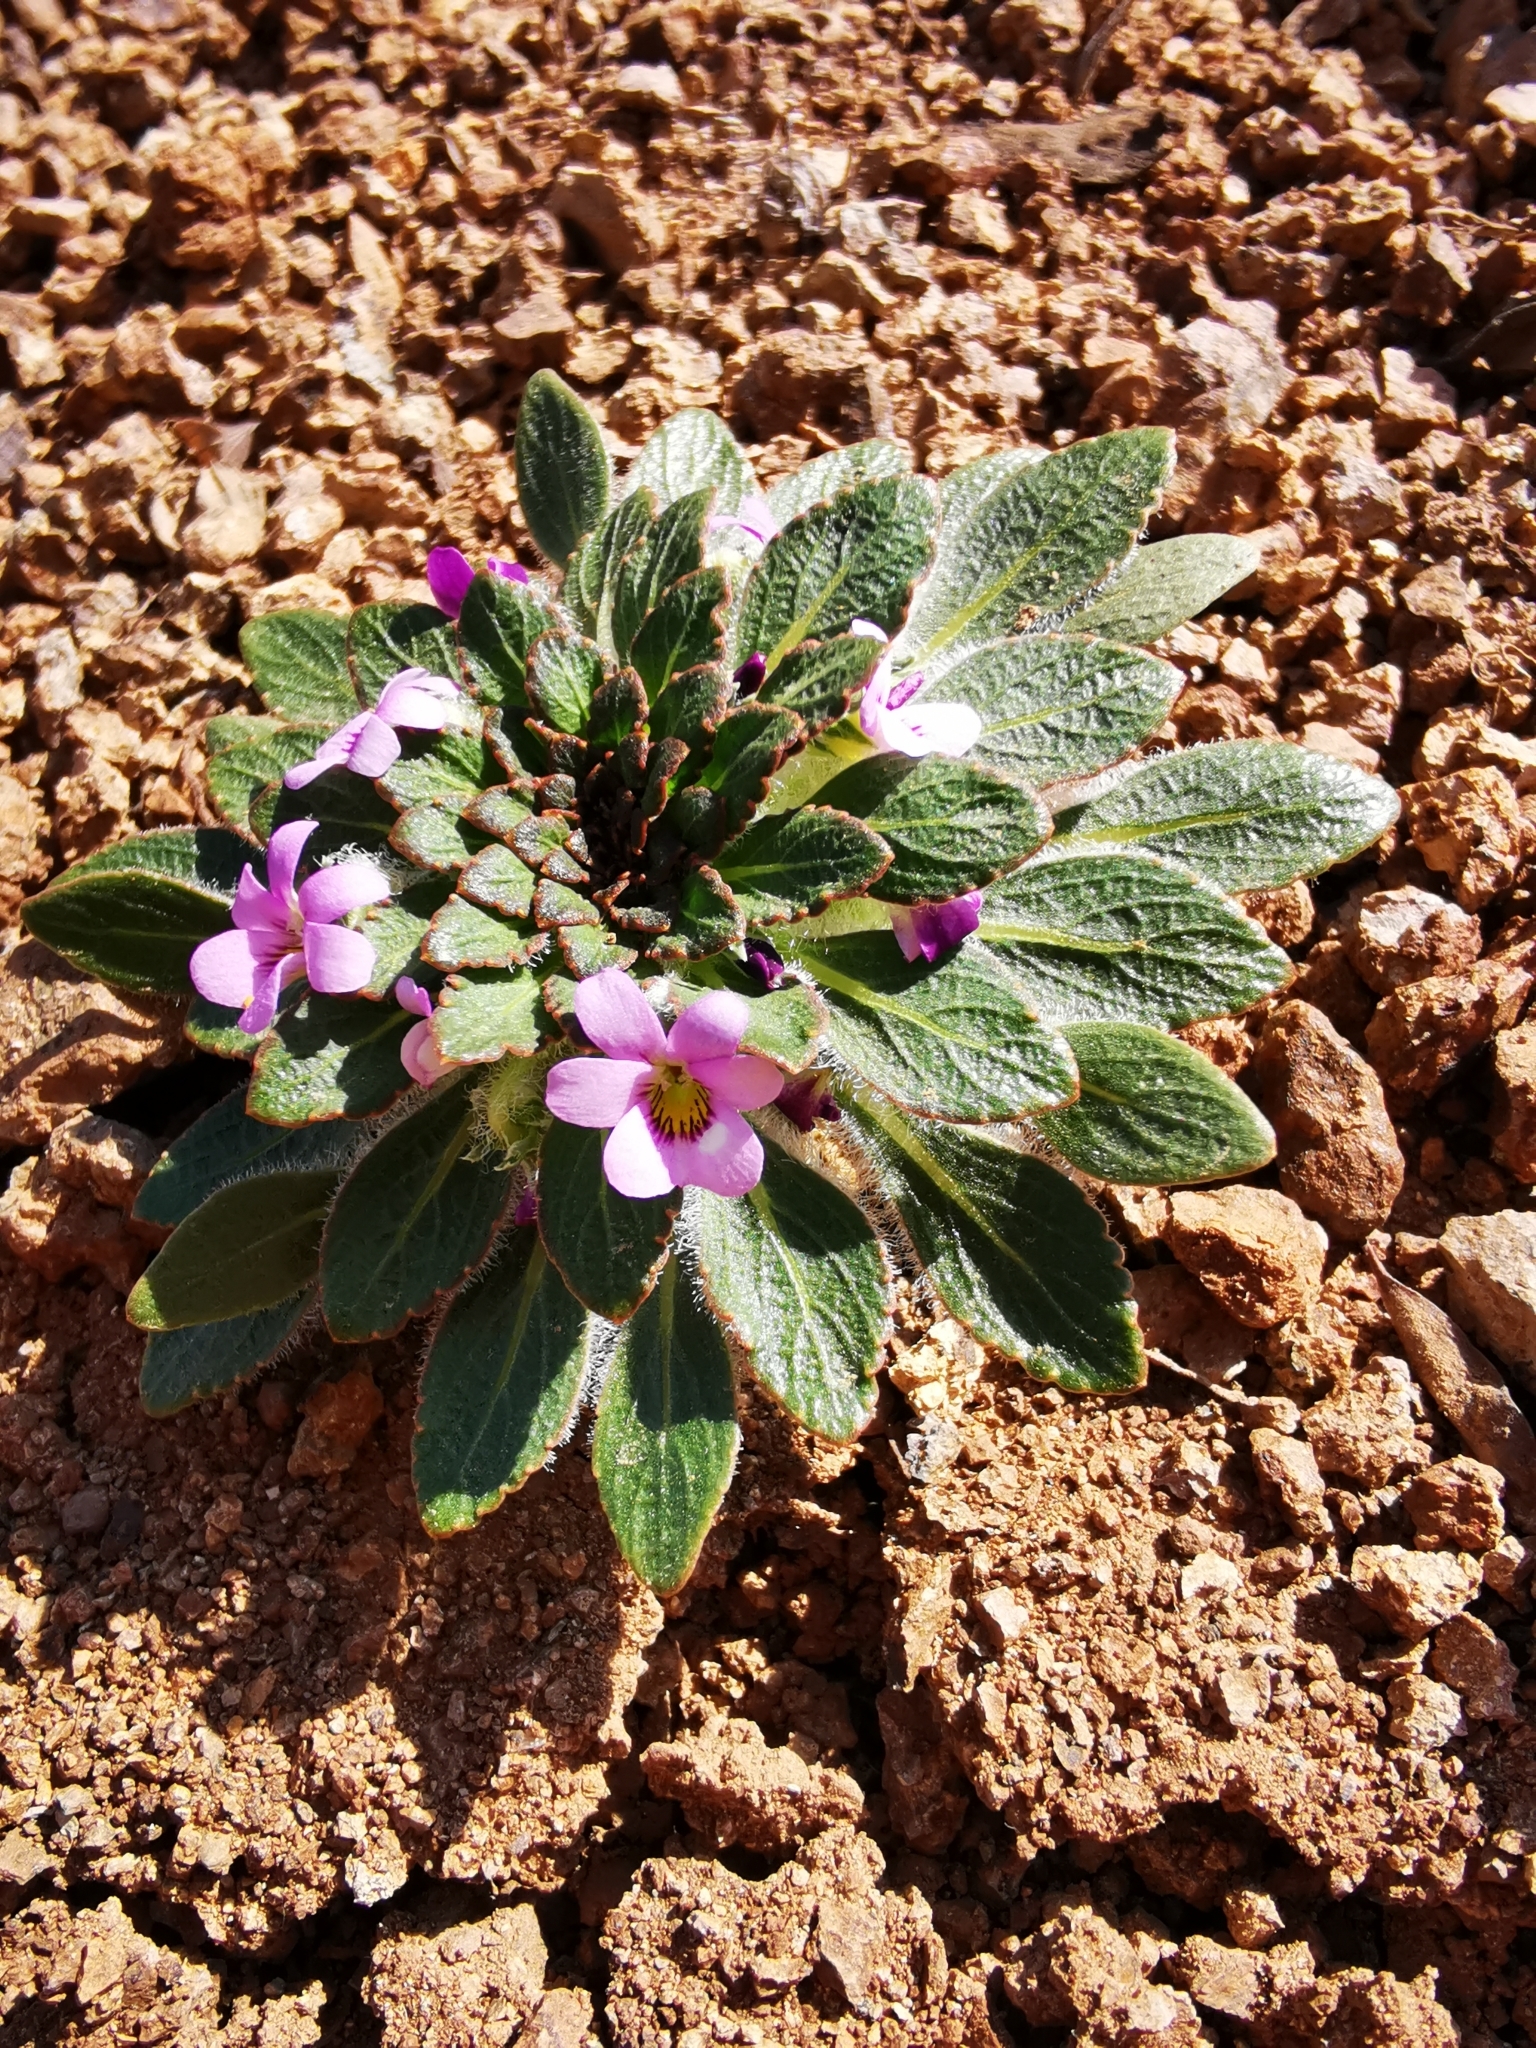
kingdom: Plantae
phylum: Tracheophyta
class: Magnoliopsida
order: Malpighiales
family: Violaceae
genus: Viola
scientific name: Viola subandina
